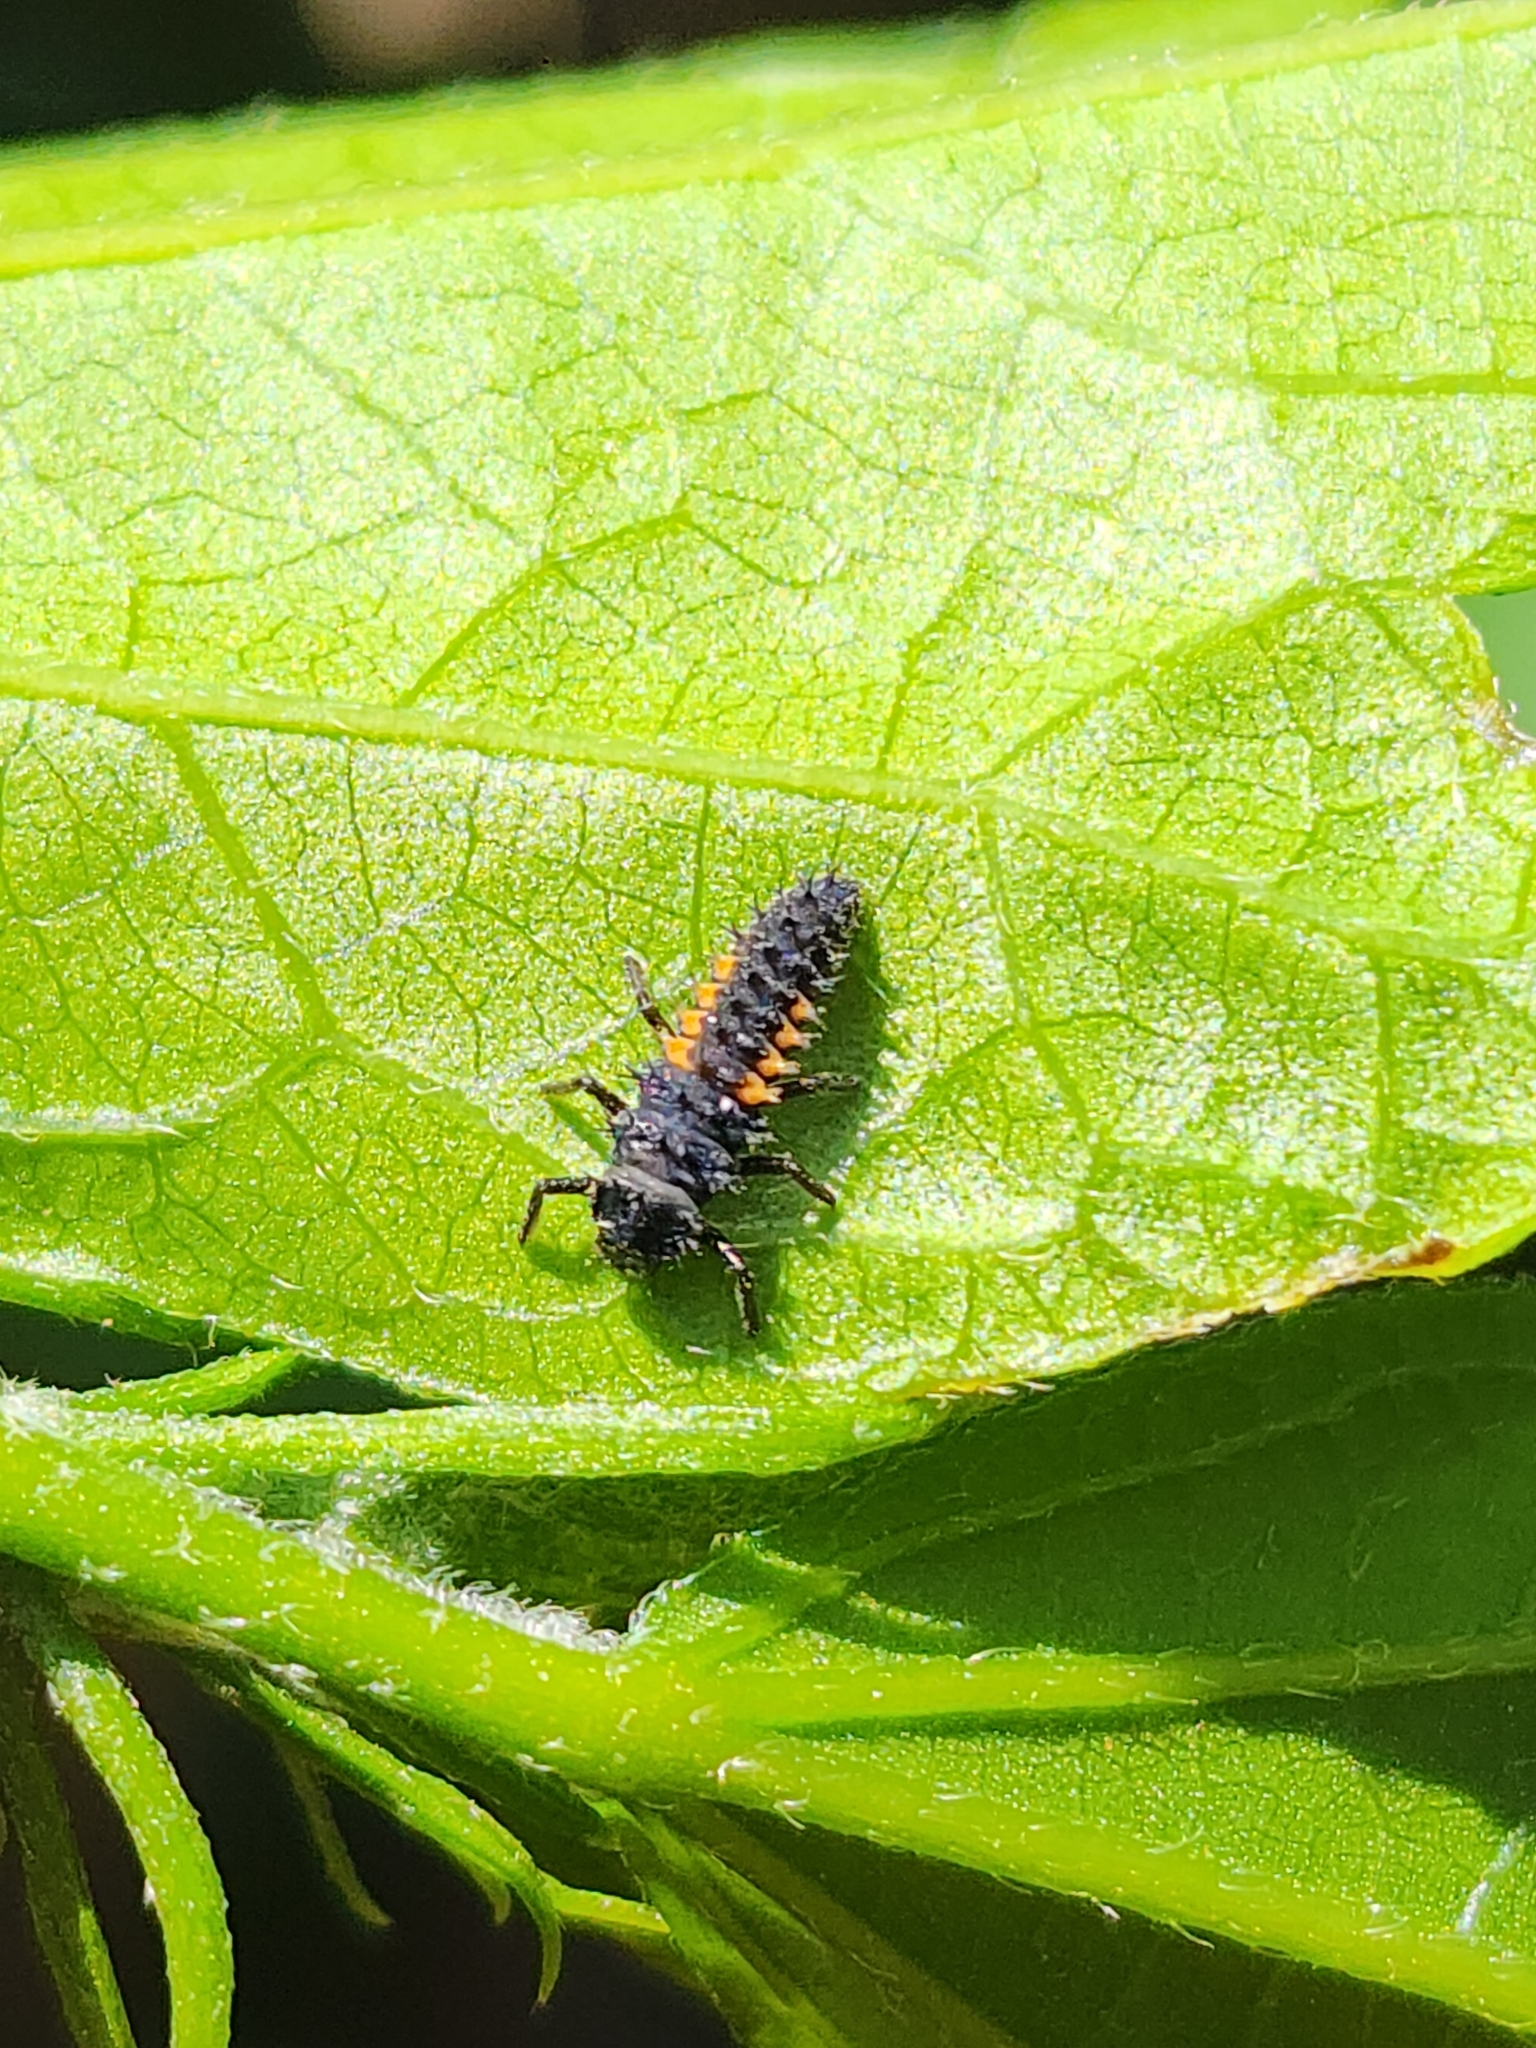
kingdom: Animalia
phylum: Arthropoda
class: Insecta
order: Coleoptera
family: Coccinellidae
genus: Harmonia
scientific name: Harmonia axyridis
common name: Harlequin ladybird
